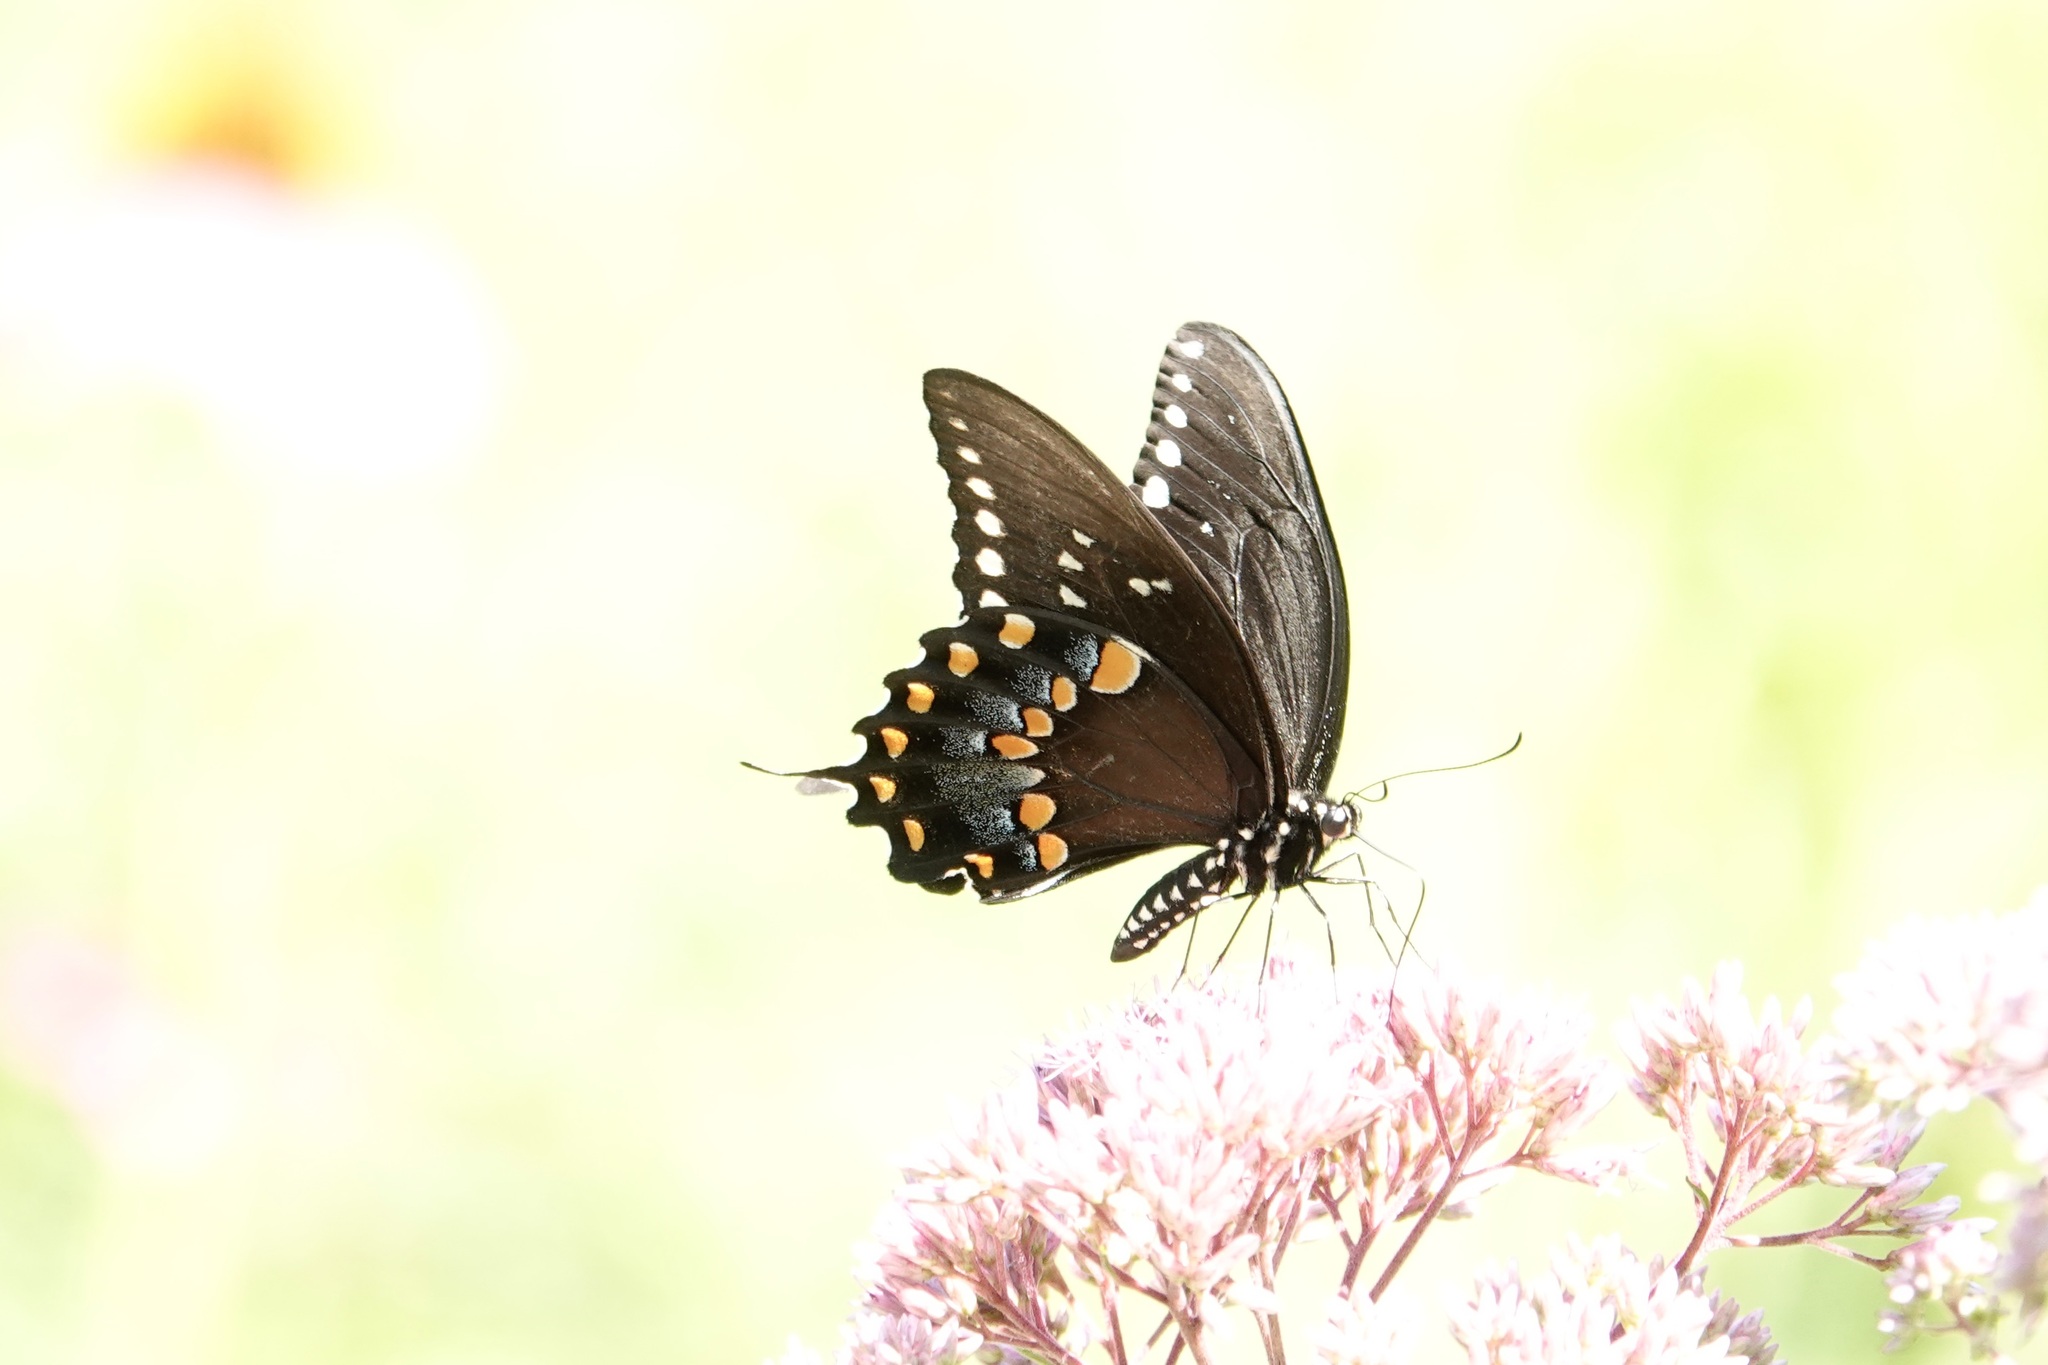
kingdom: Animalia
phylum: Arthropoda
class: Insecta
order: Lepidoptera
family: Papilionidae
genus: Papilio
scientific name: Papilio troilus
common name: Spicebush swallowtail
